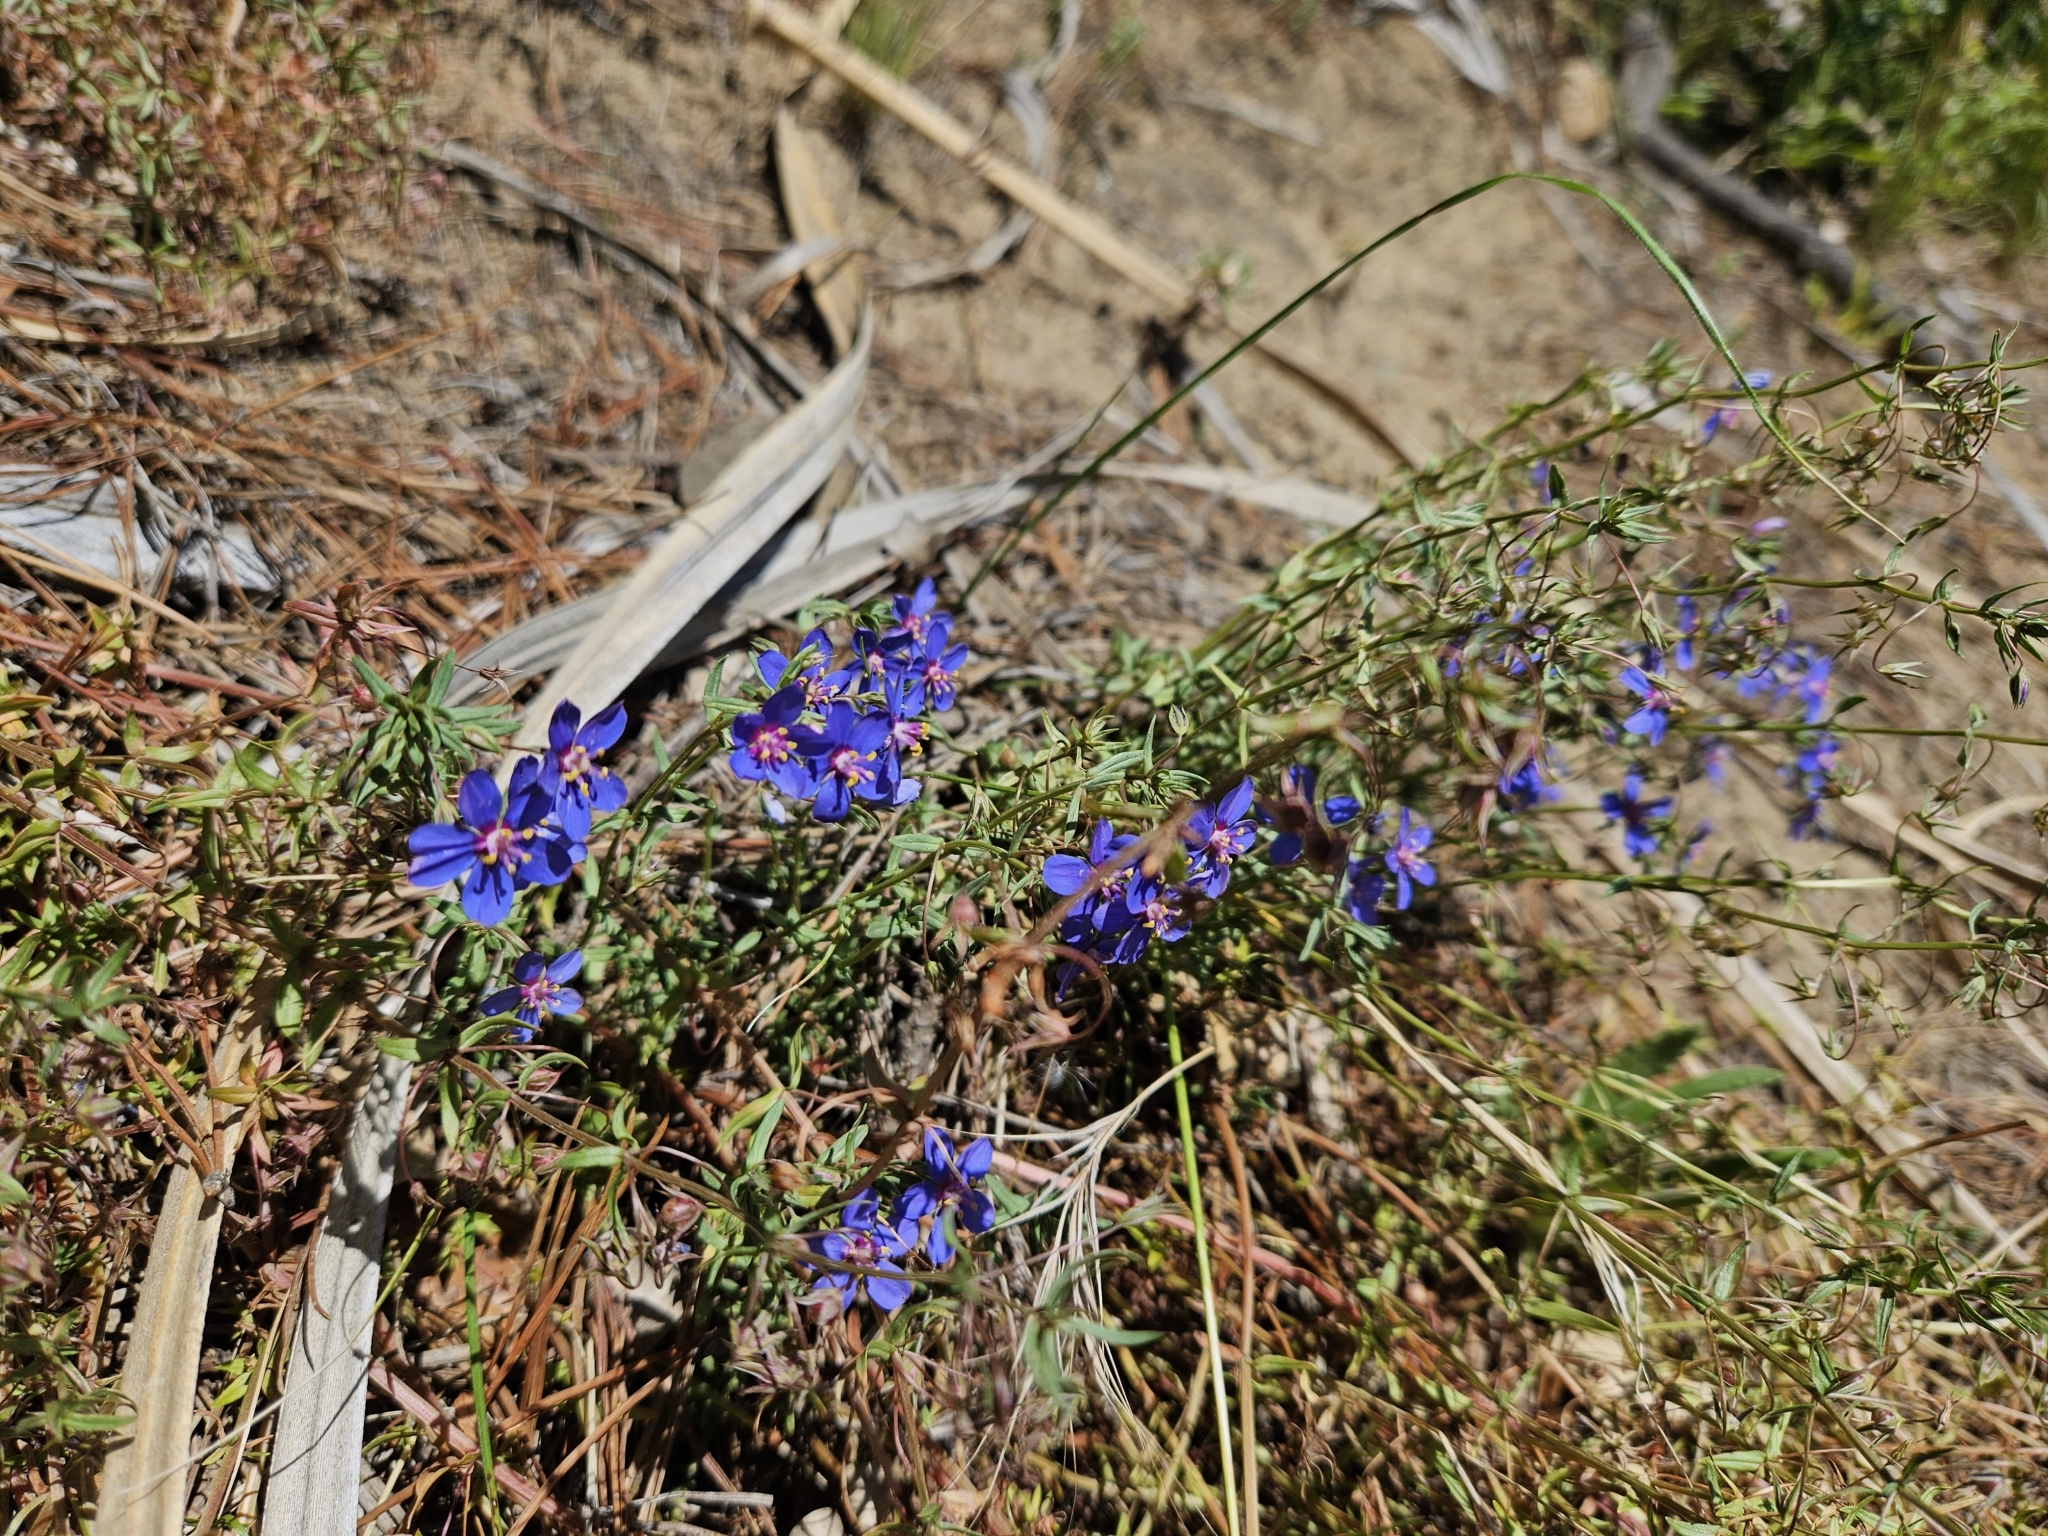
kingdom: Plantae
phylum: Tracheophyta
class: Magnoliopsida
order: Ericales
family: Primulaceae
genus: Lysimachia
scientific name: Lysimachia monelli
